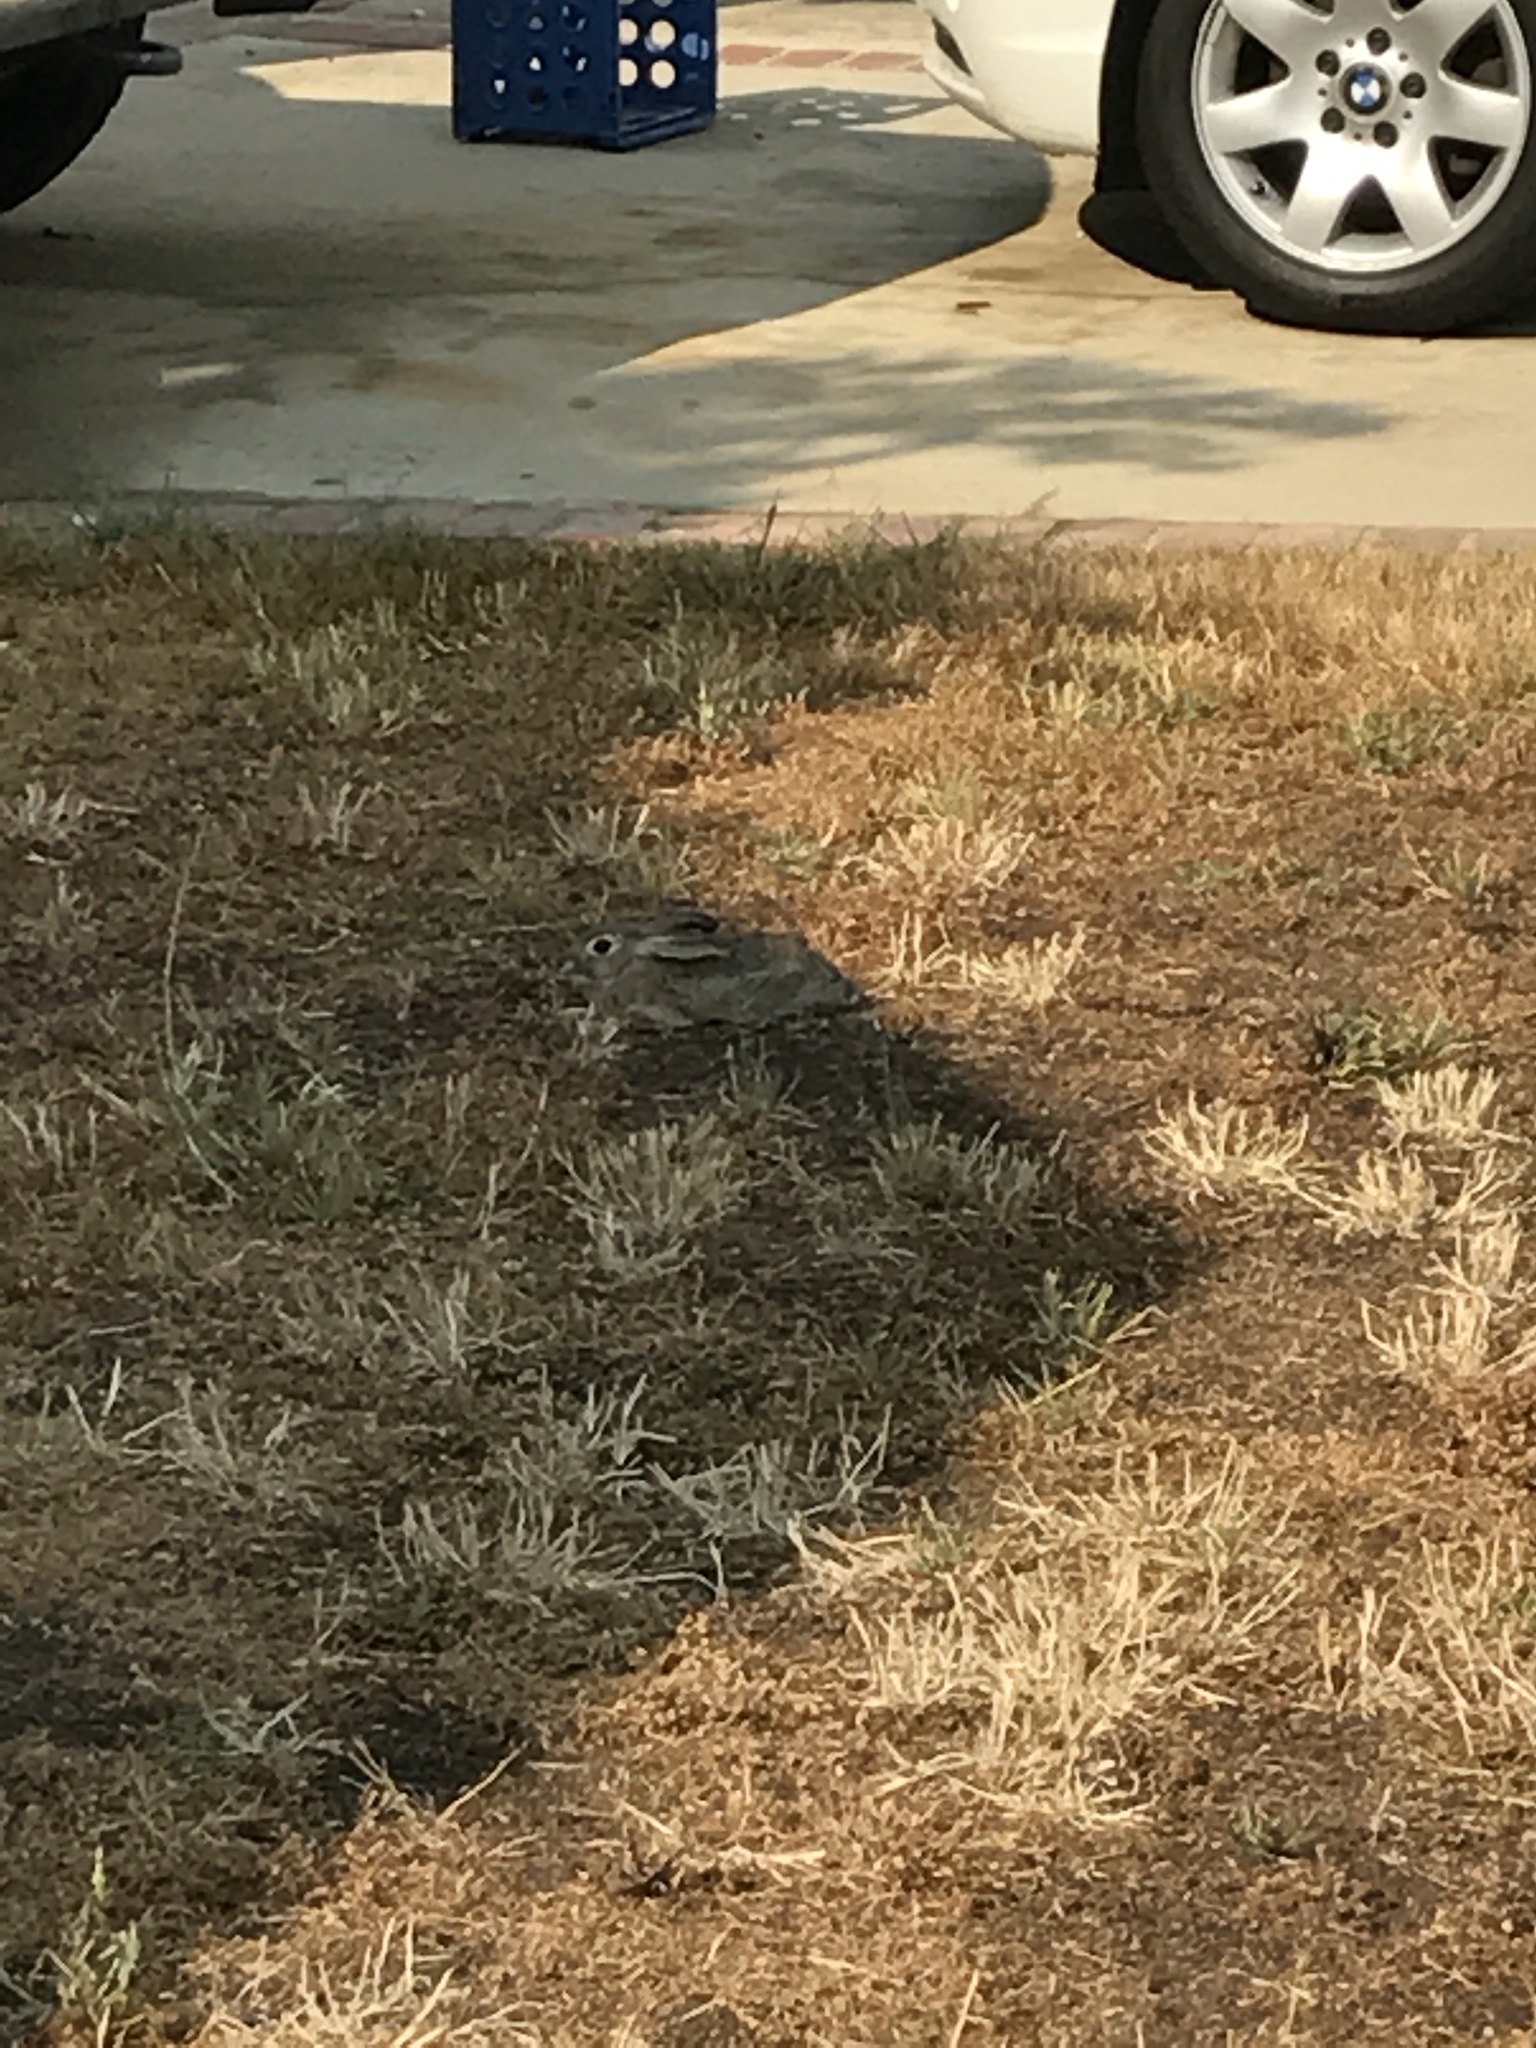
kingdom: Animalia
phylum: Chordata
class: Mammalia
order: Lagomorpha
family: Leporidae
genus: Sylvilagus
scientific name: Sylvilagus audubonii
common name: Desert cottontail
